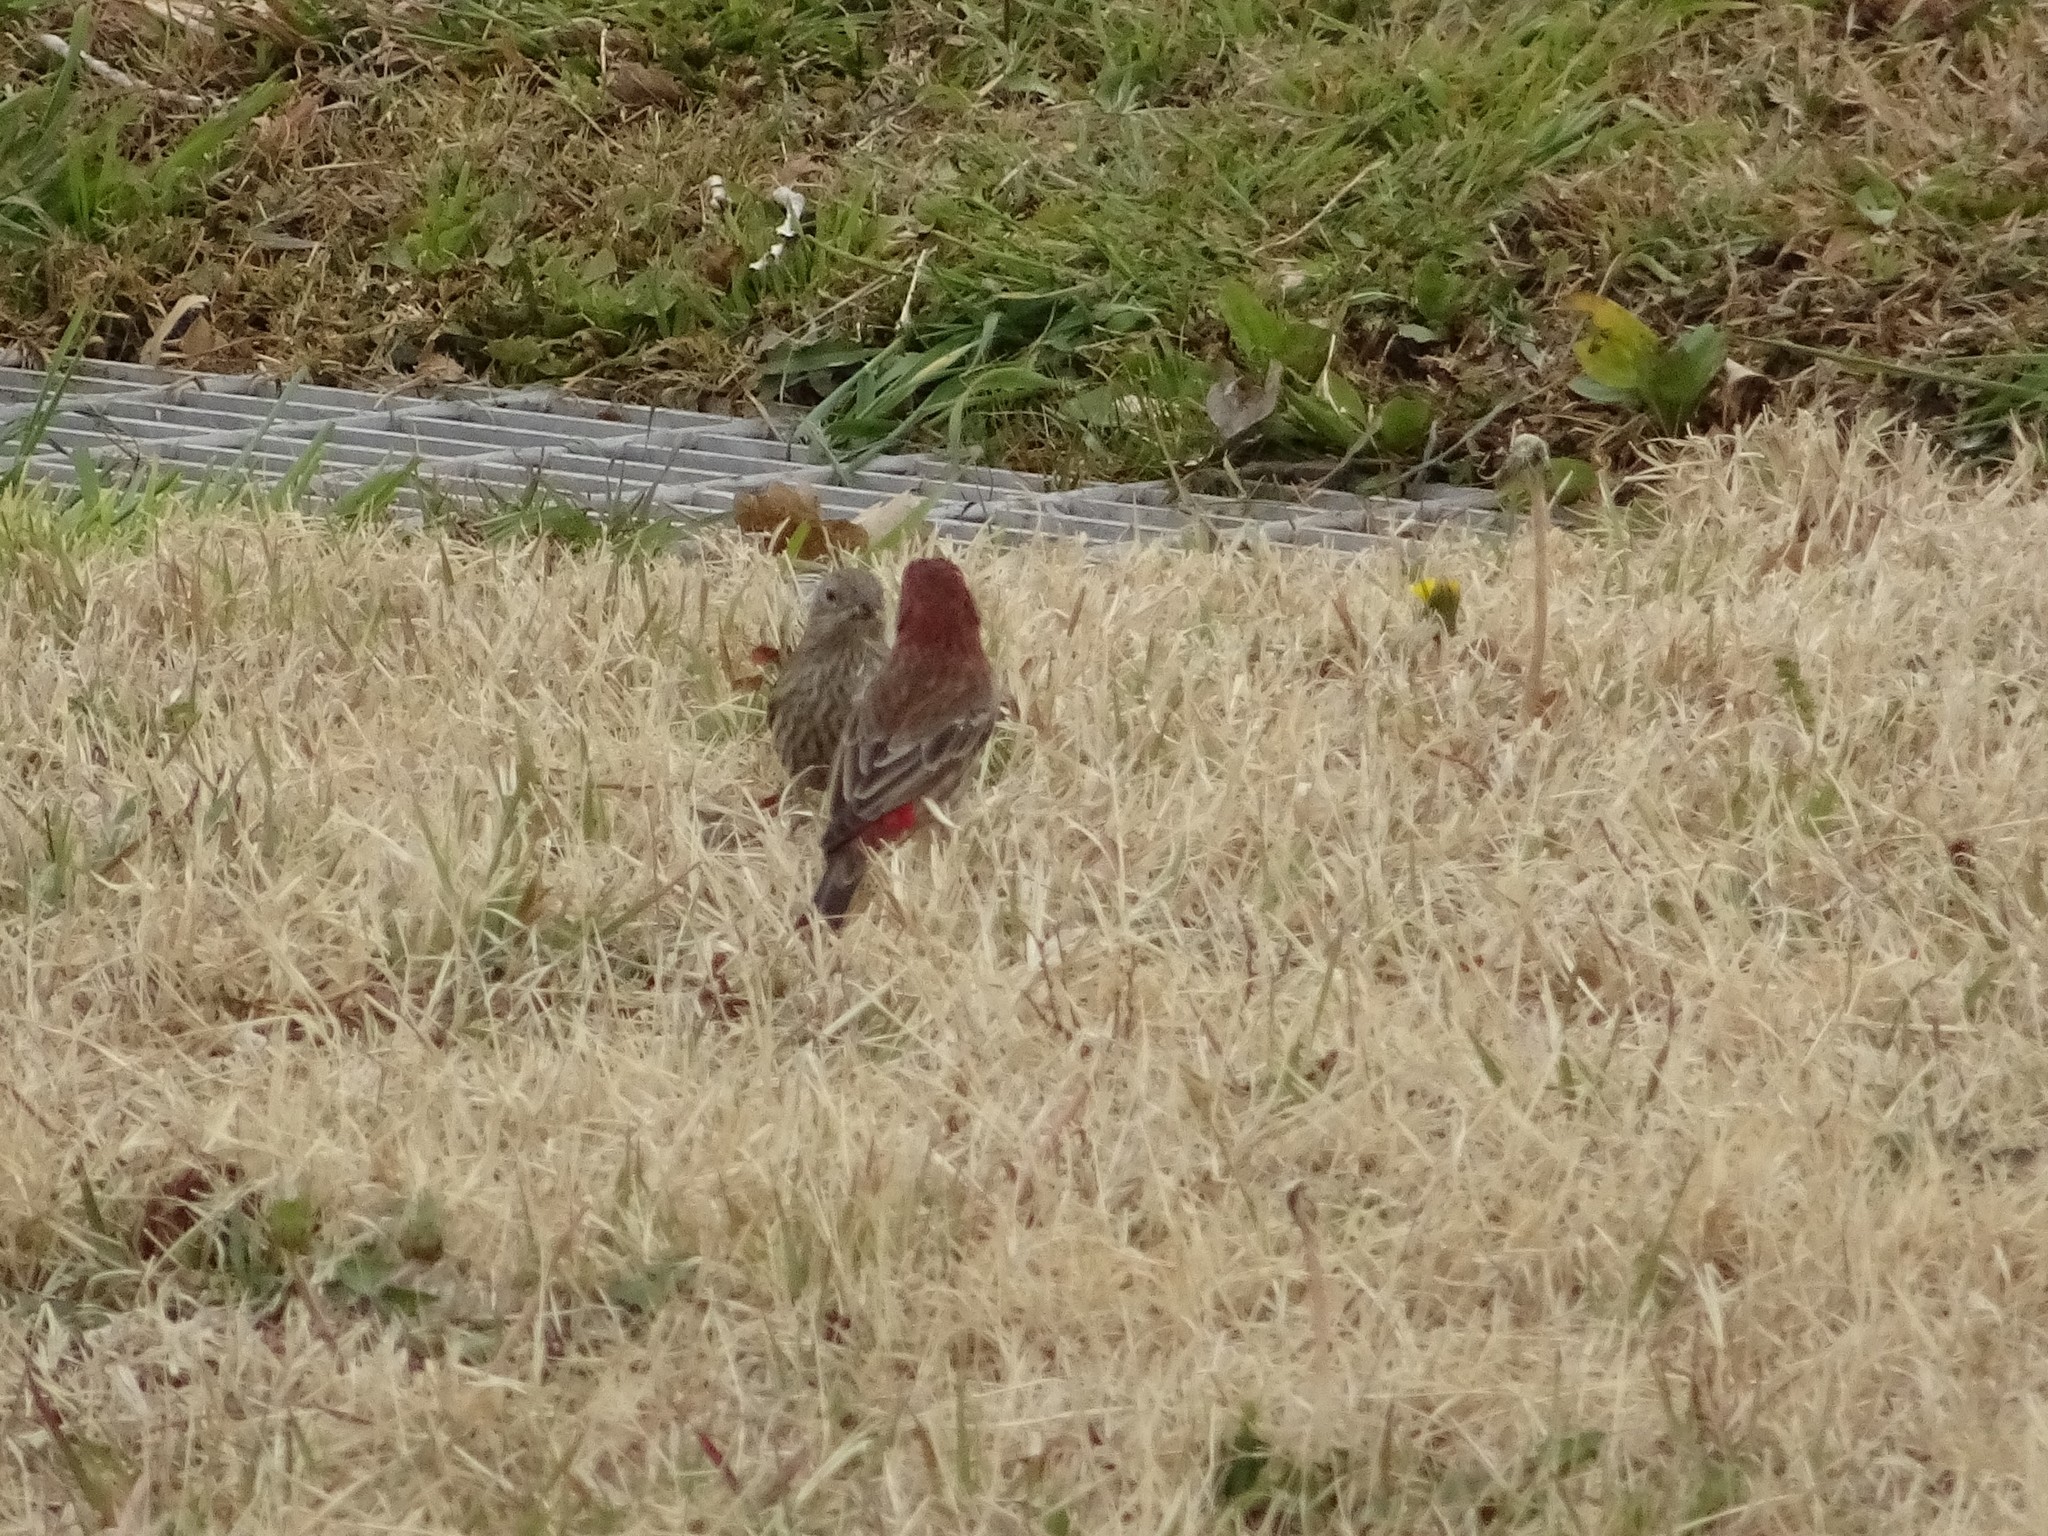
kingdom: Animalia
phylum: Chordata
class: Aves
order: Passeriformes
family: Fringillidae
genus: Haemorhous
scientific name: Haemorhous mexicanus
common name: House finch
